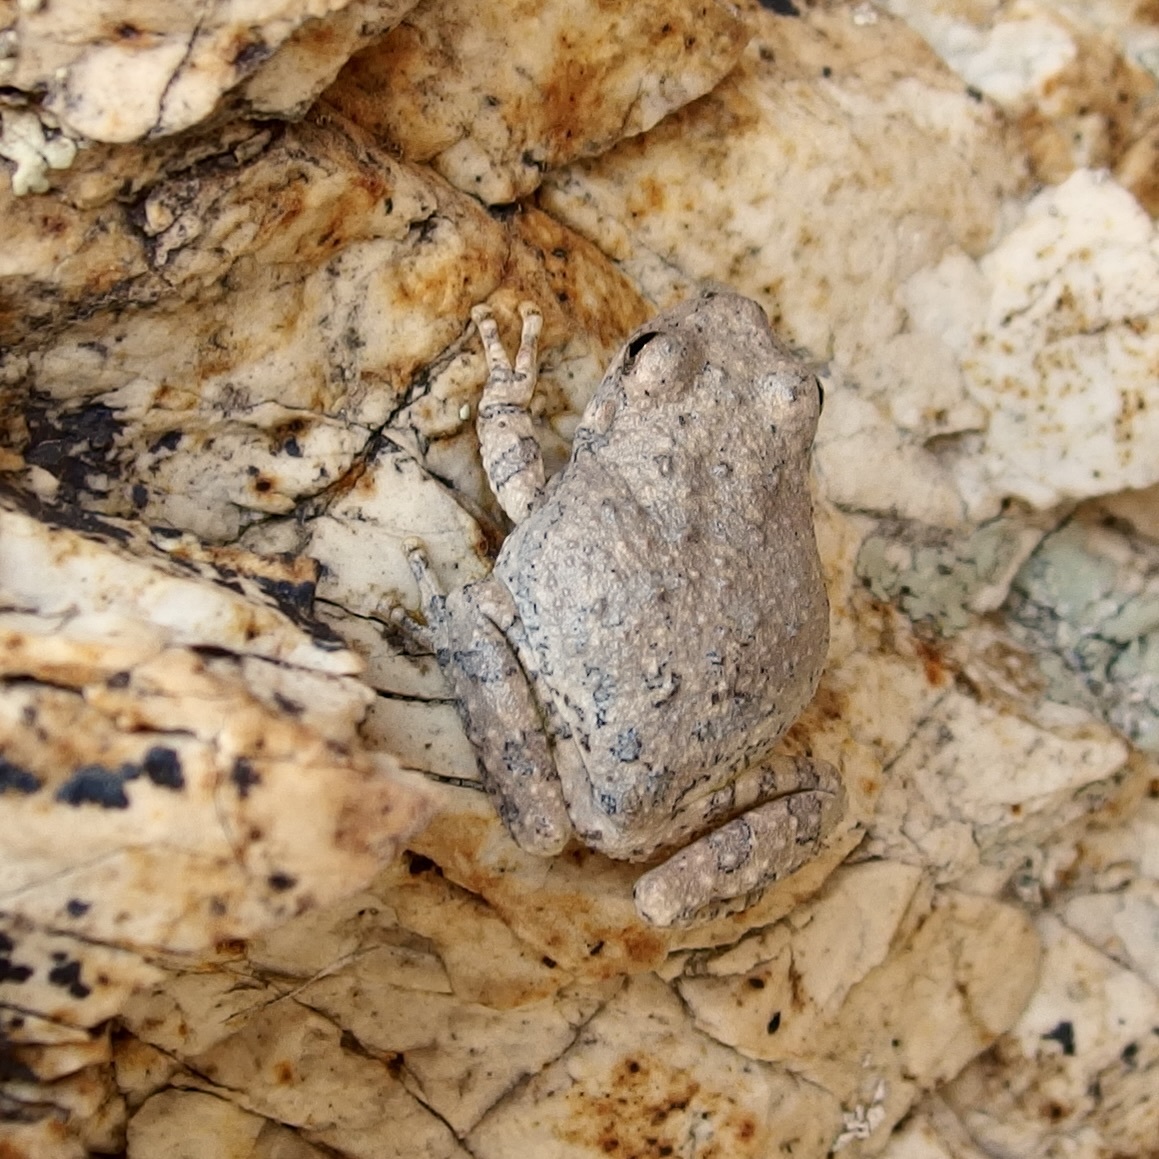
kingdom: Animalia
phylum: Chordata
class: Amphibia
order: Anura
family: Hylidae
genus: Dryophytes
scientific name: Dryophytes arenicolor
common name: Canyon treefrog
